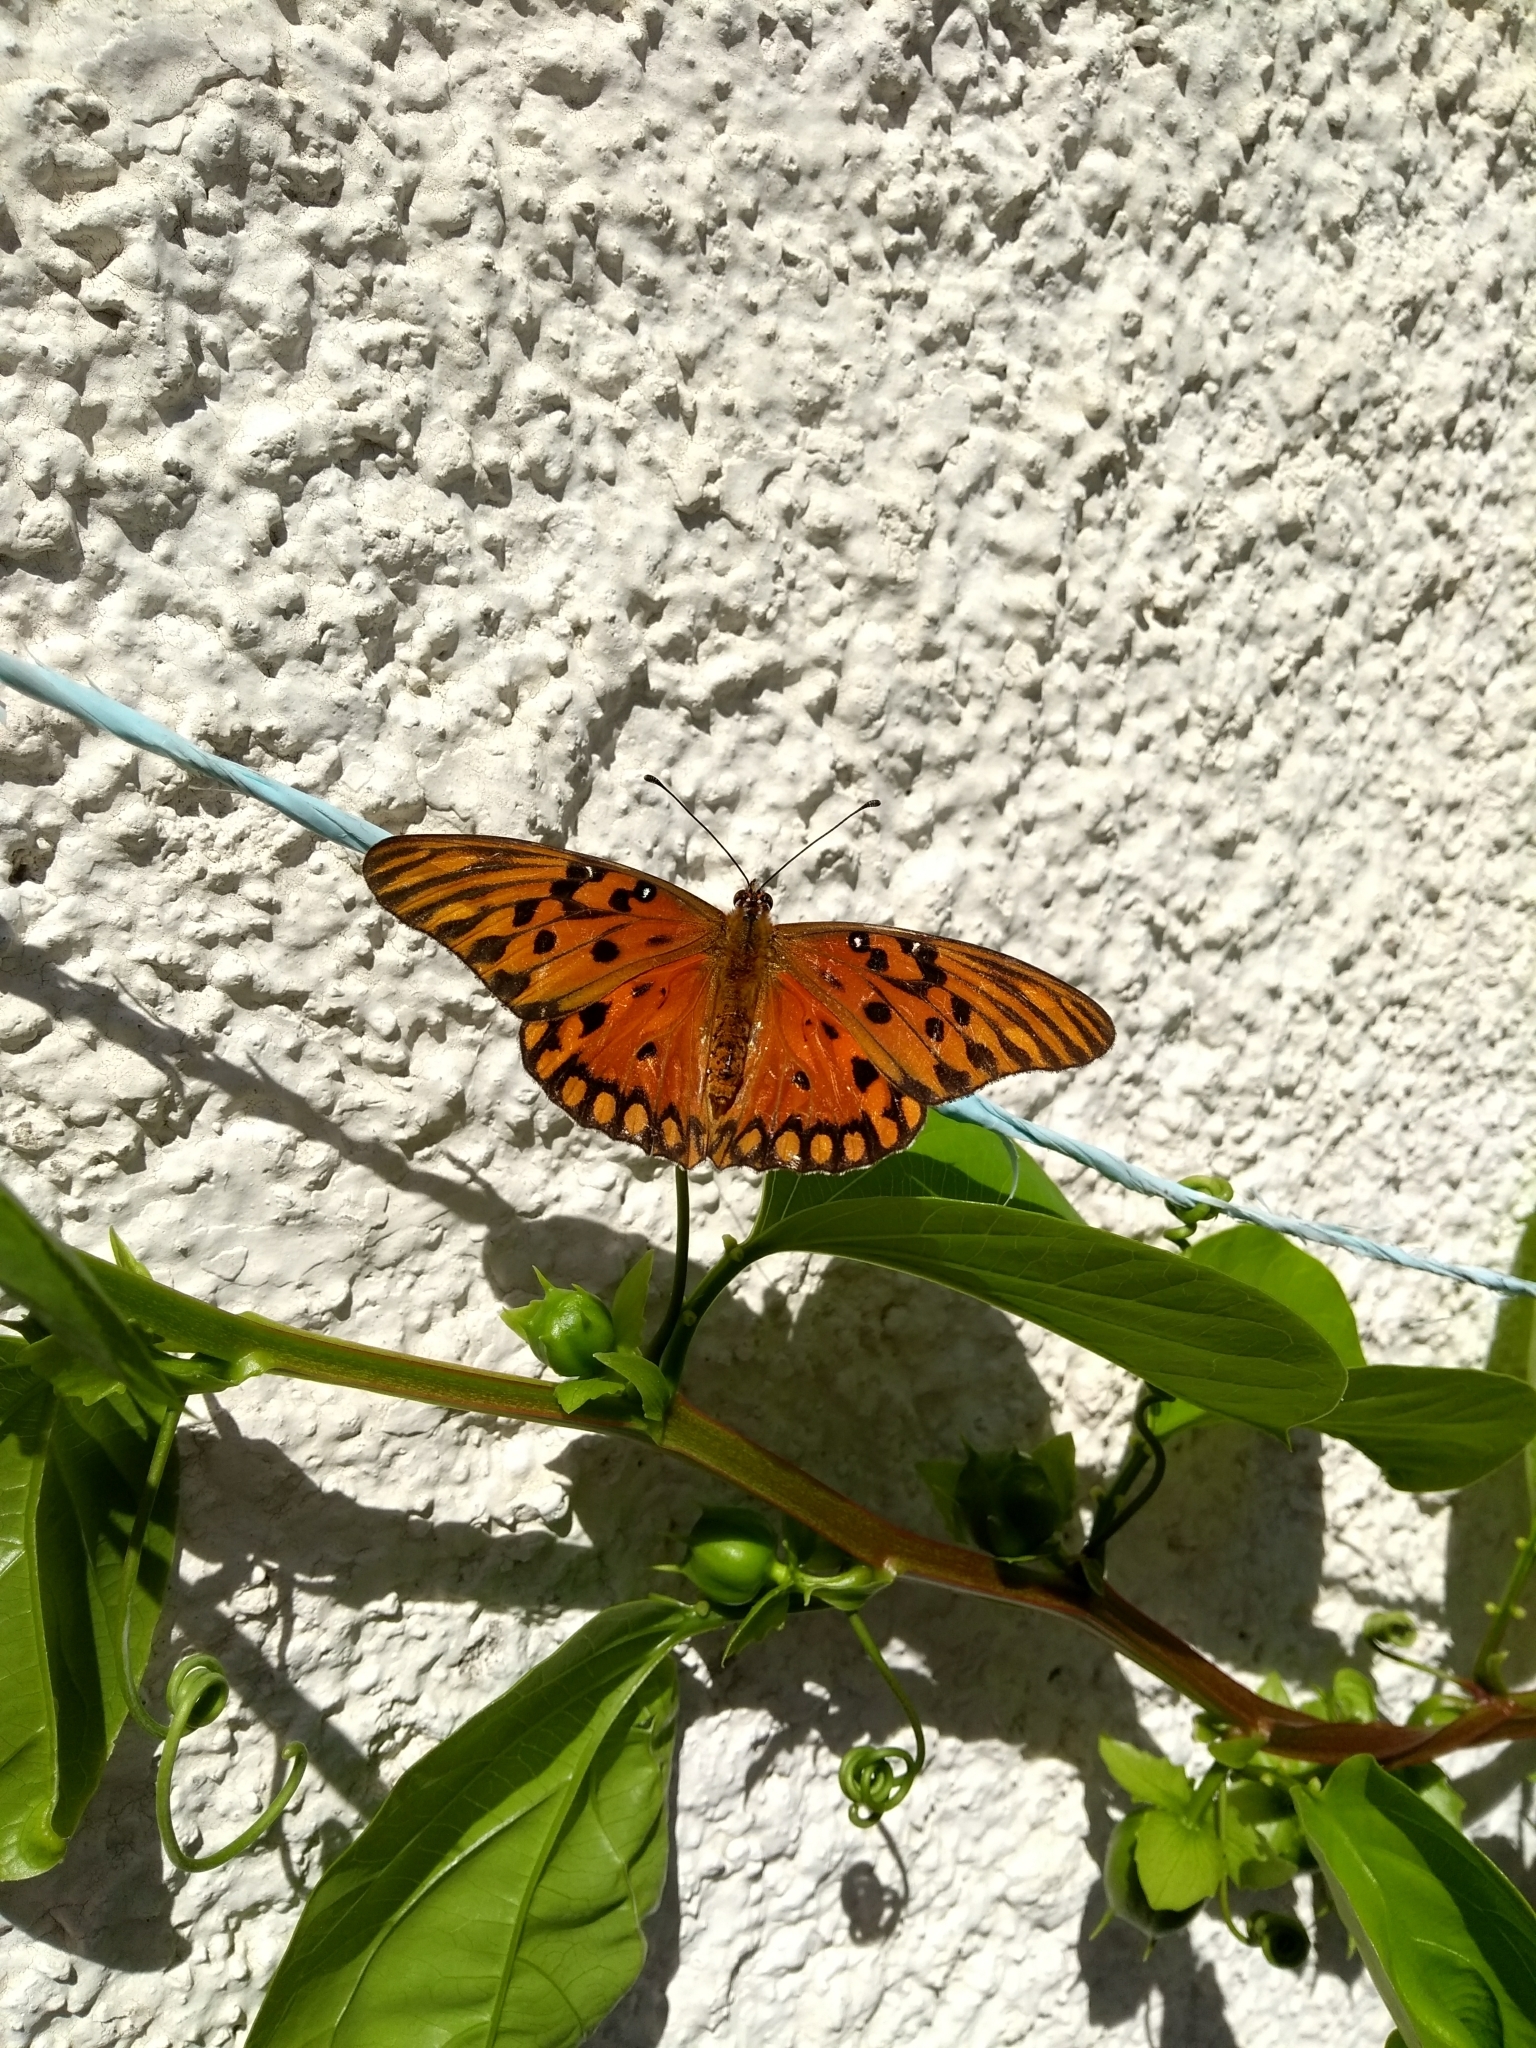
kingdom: Animalia
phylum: Arthropoda
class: Insecta
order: Lepidoptera
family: Nymphalidae
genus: Dione
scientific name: Dione vanillae
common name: Gulf fritillary
